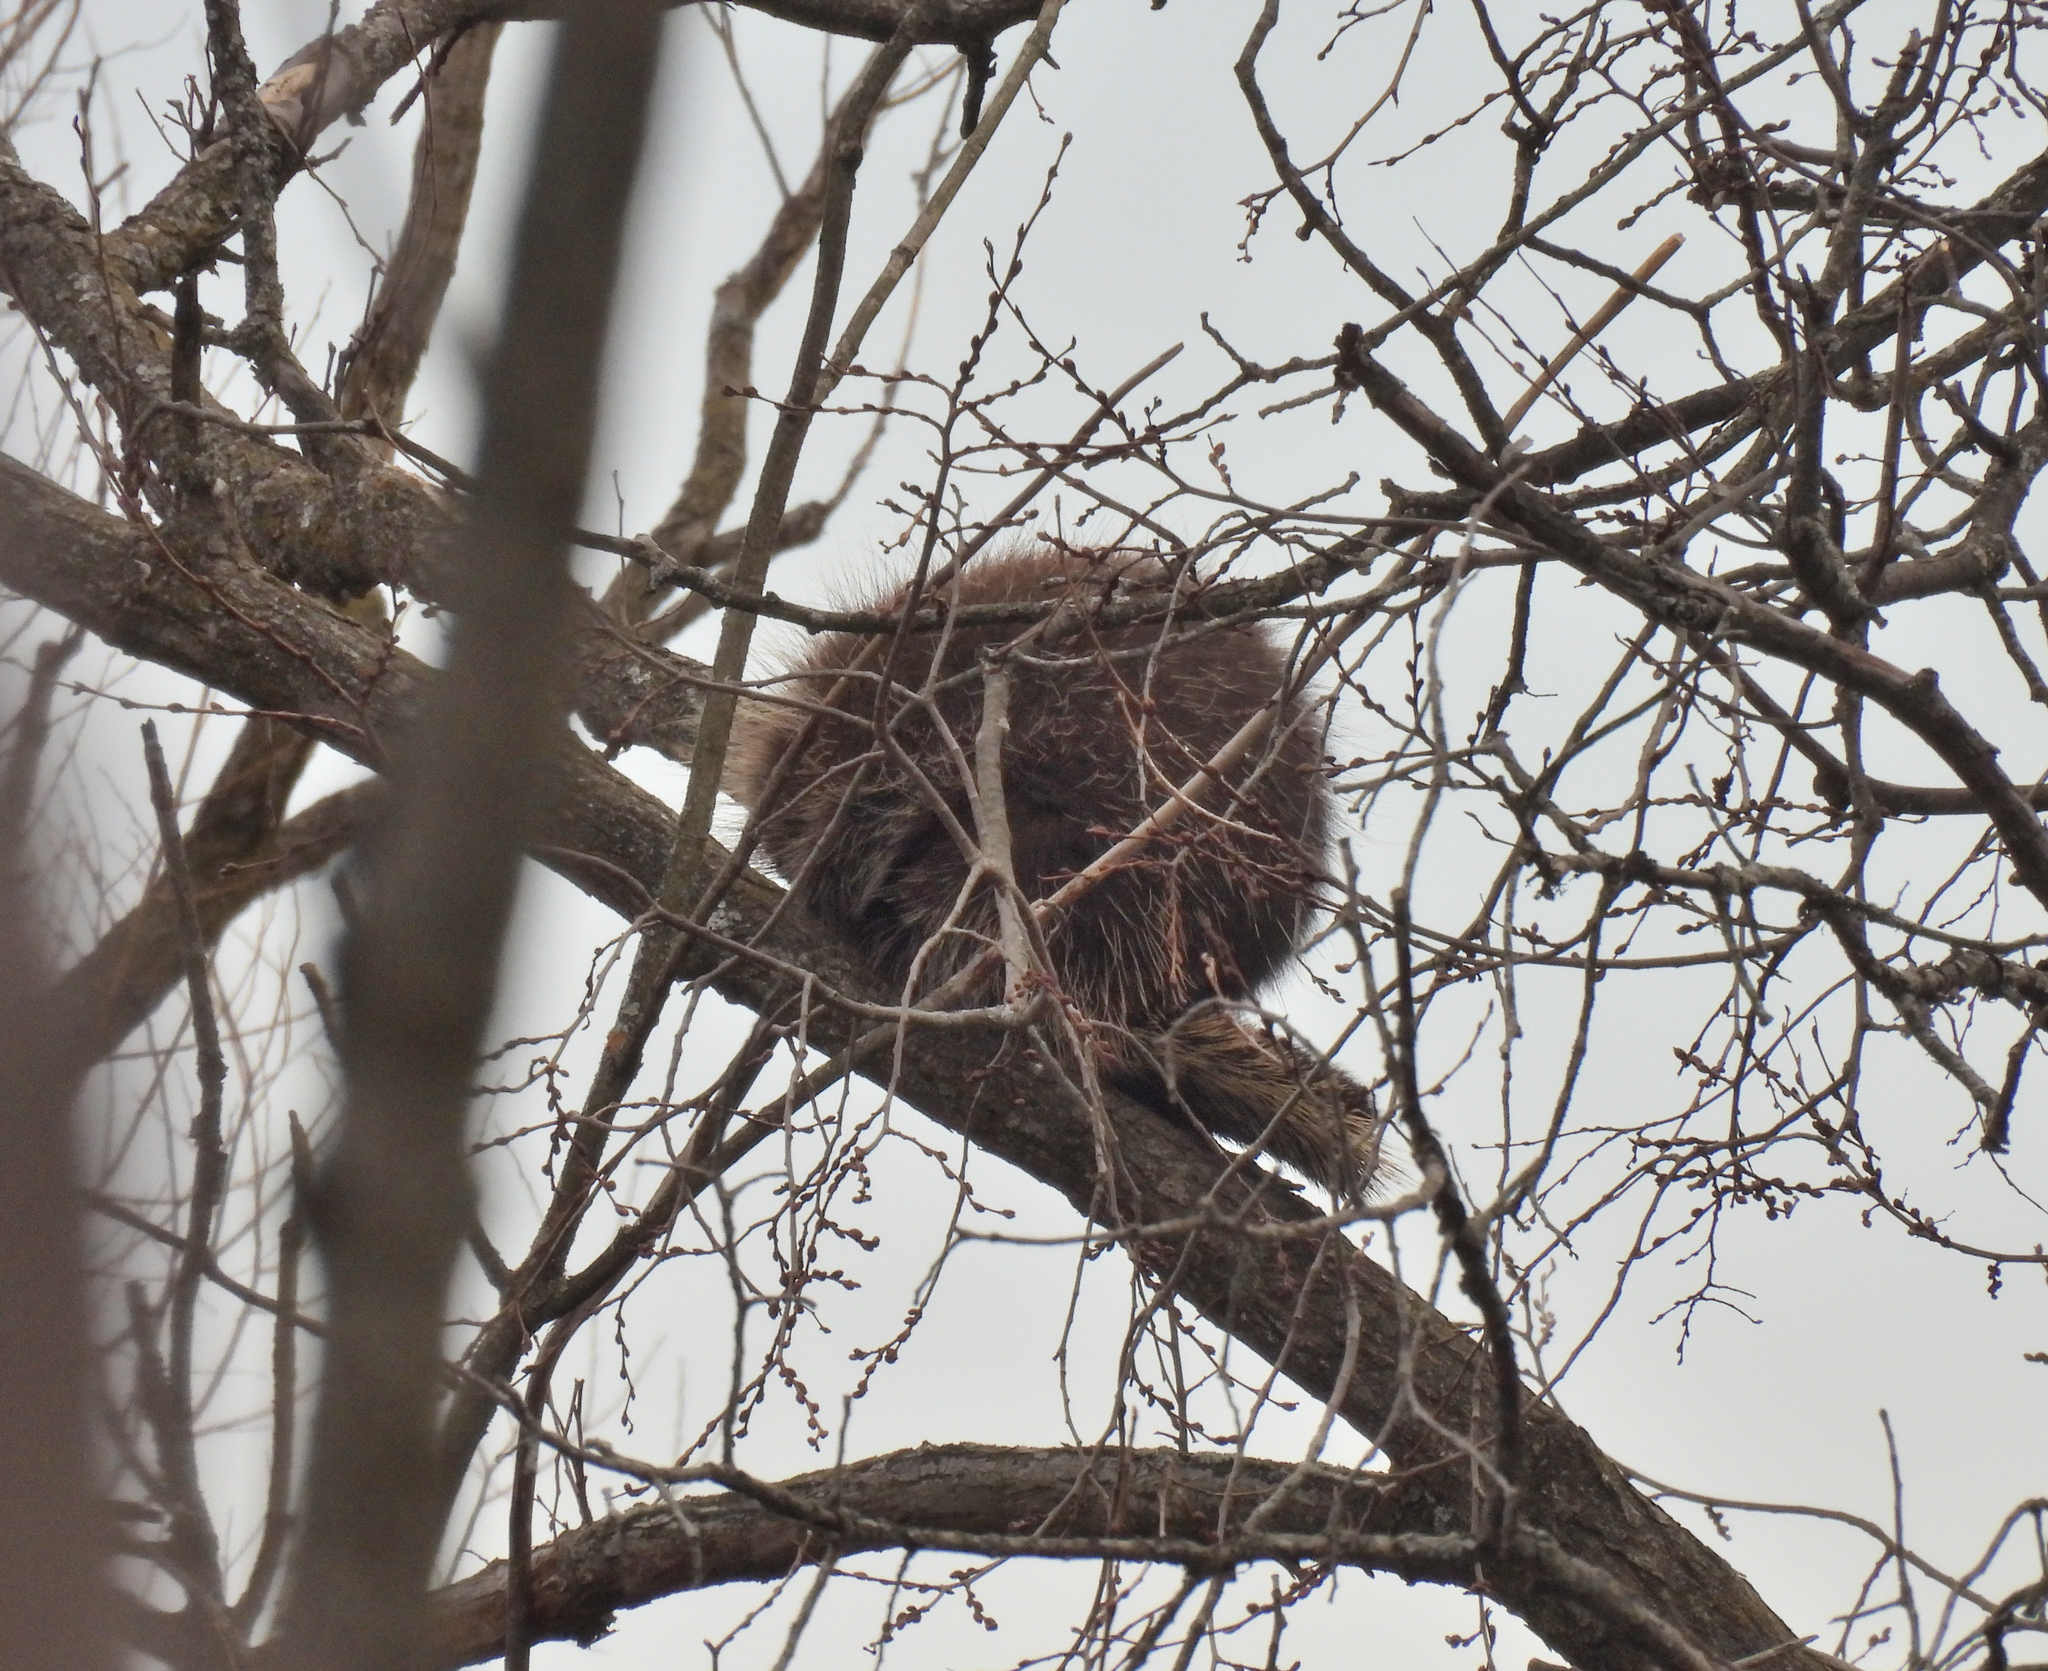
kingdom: Animalia
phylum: Chordata
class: Mammalia
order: Rodentia
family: Erethizontidae
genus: Erethizon
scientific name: Erethizon dorsatus
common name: North american porcupine
